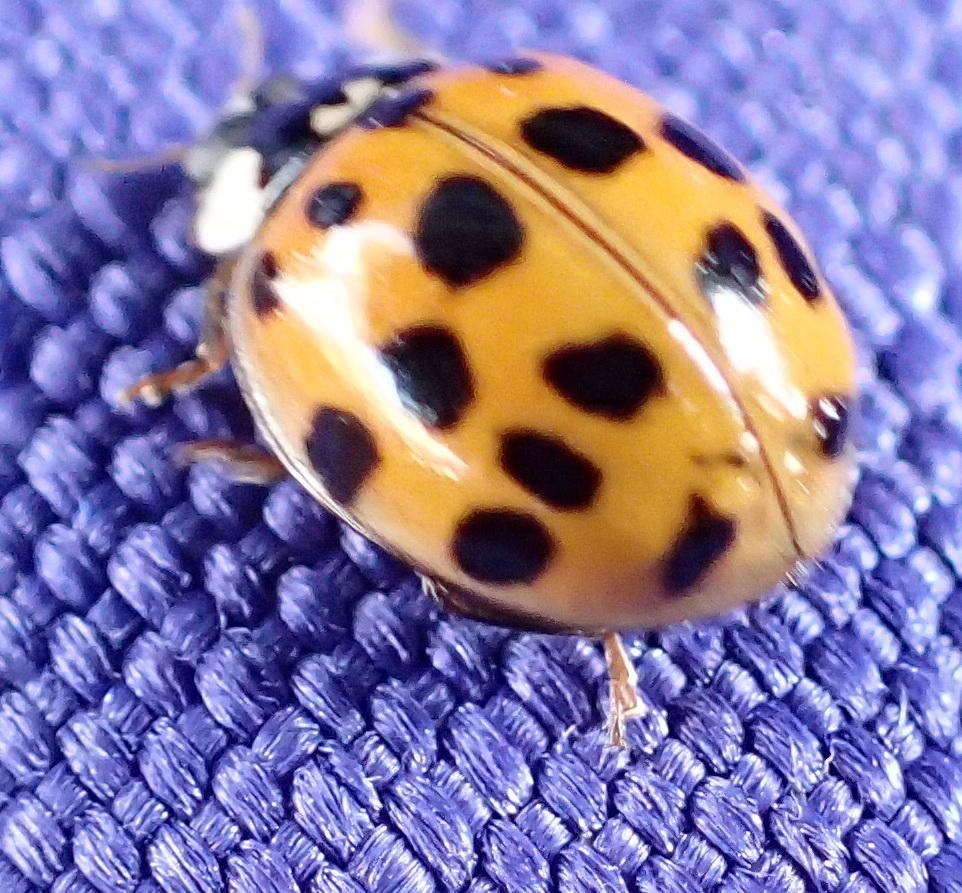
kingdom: Animalia
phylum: Arthropoda
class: Insecta
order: Coleoptera
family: Coccinellidae
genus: Harmonia
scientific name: Harmonia axyridis
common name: Harlequin ladybird
